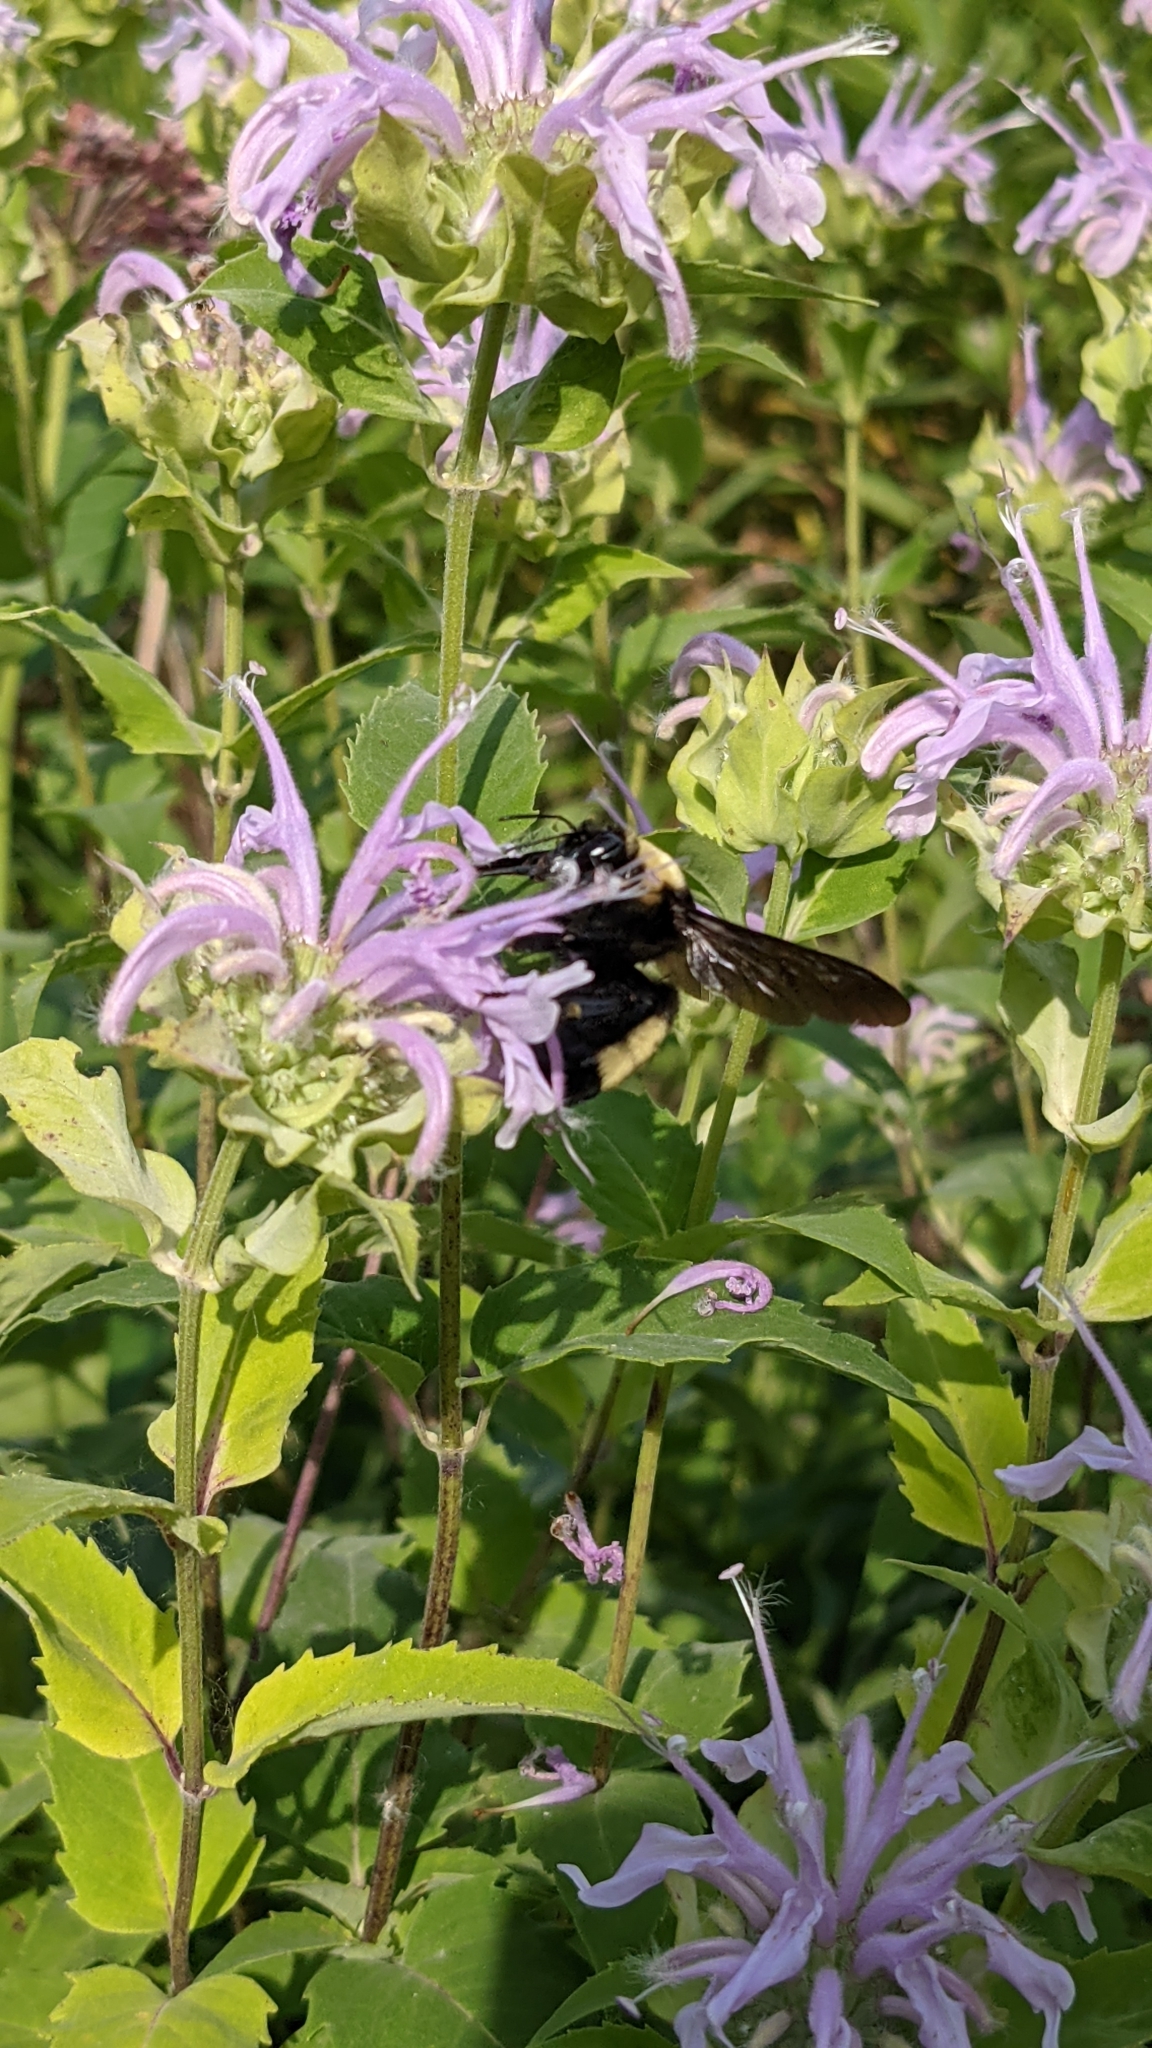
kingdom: Animalia
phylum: Arthropoda
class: Insecta
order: Hymenoptera
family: Apidae
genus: Bombus
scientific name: Bombus auricomus
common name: Black and gold bumble bee
